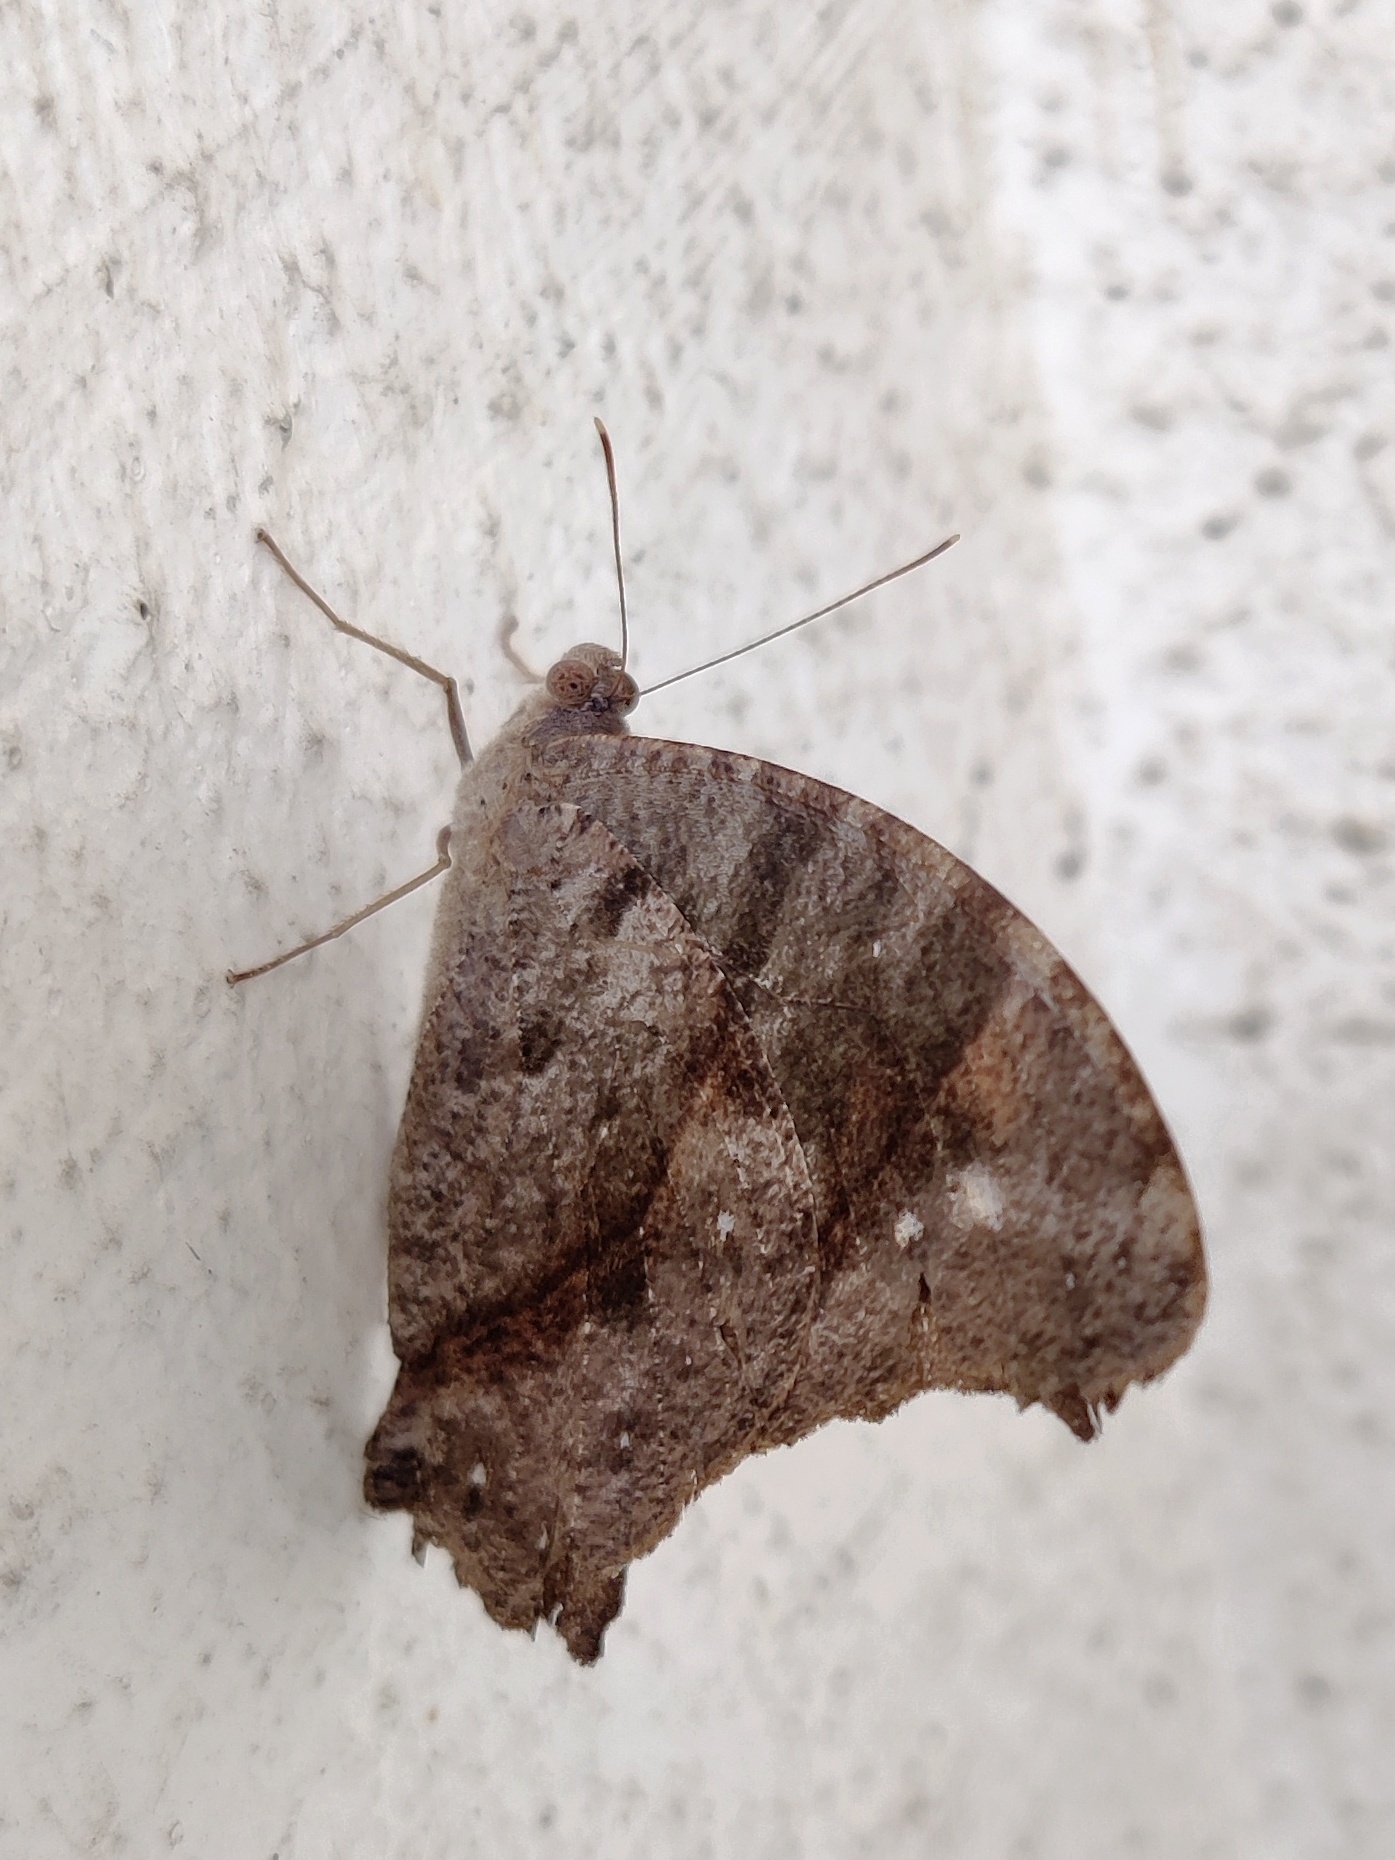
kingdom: Animalia
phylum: Arthropoda
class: Insecta
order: Lepidoptera
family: Nymphalidae
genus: Melanitis
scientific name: Melanitis leda
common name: Twilight brown
